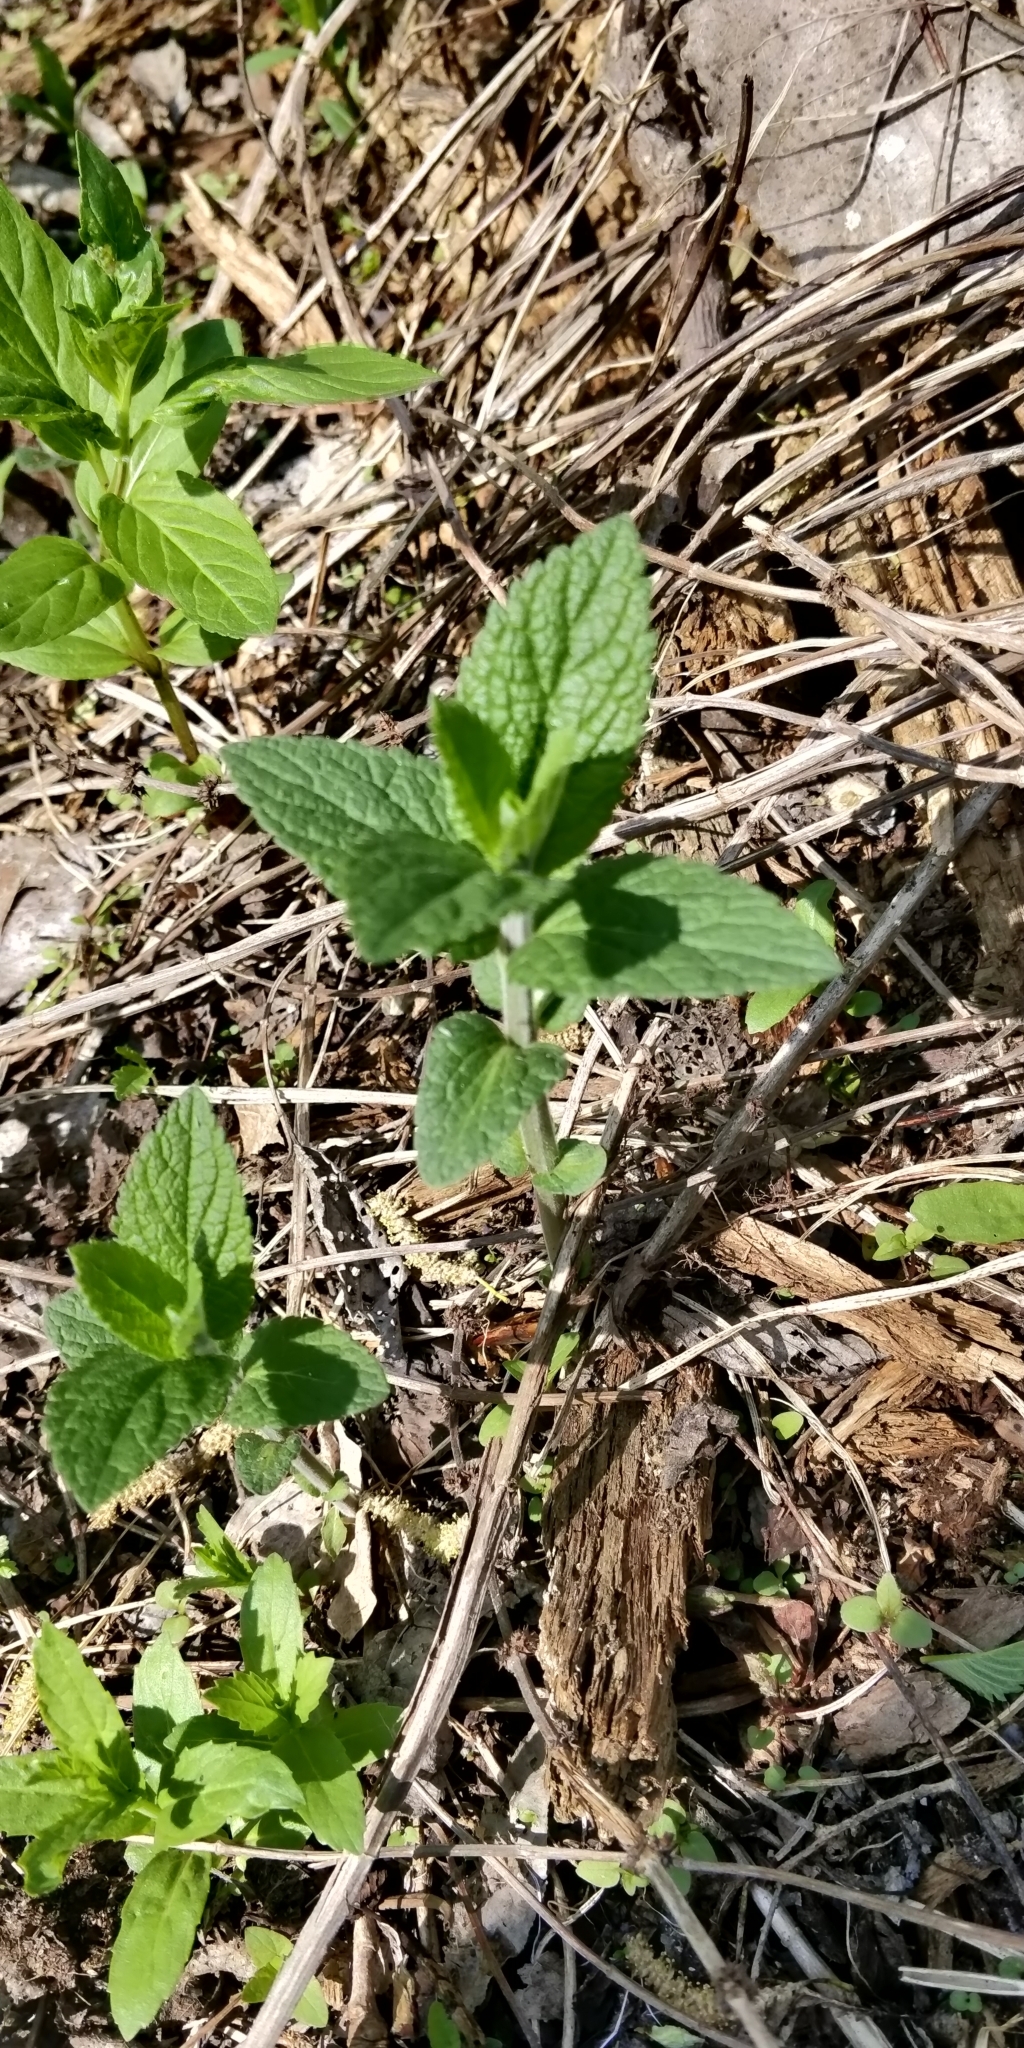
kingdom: Plantae
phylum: Tracheophyta
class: Magnoliopsida
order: Lamiales
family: Lamiaceae
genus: Teucrium
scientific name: Teucrium canadense
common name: American germander
